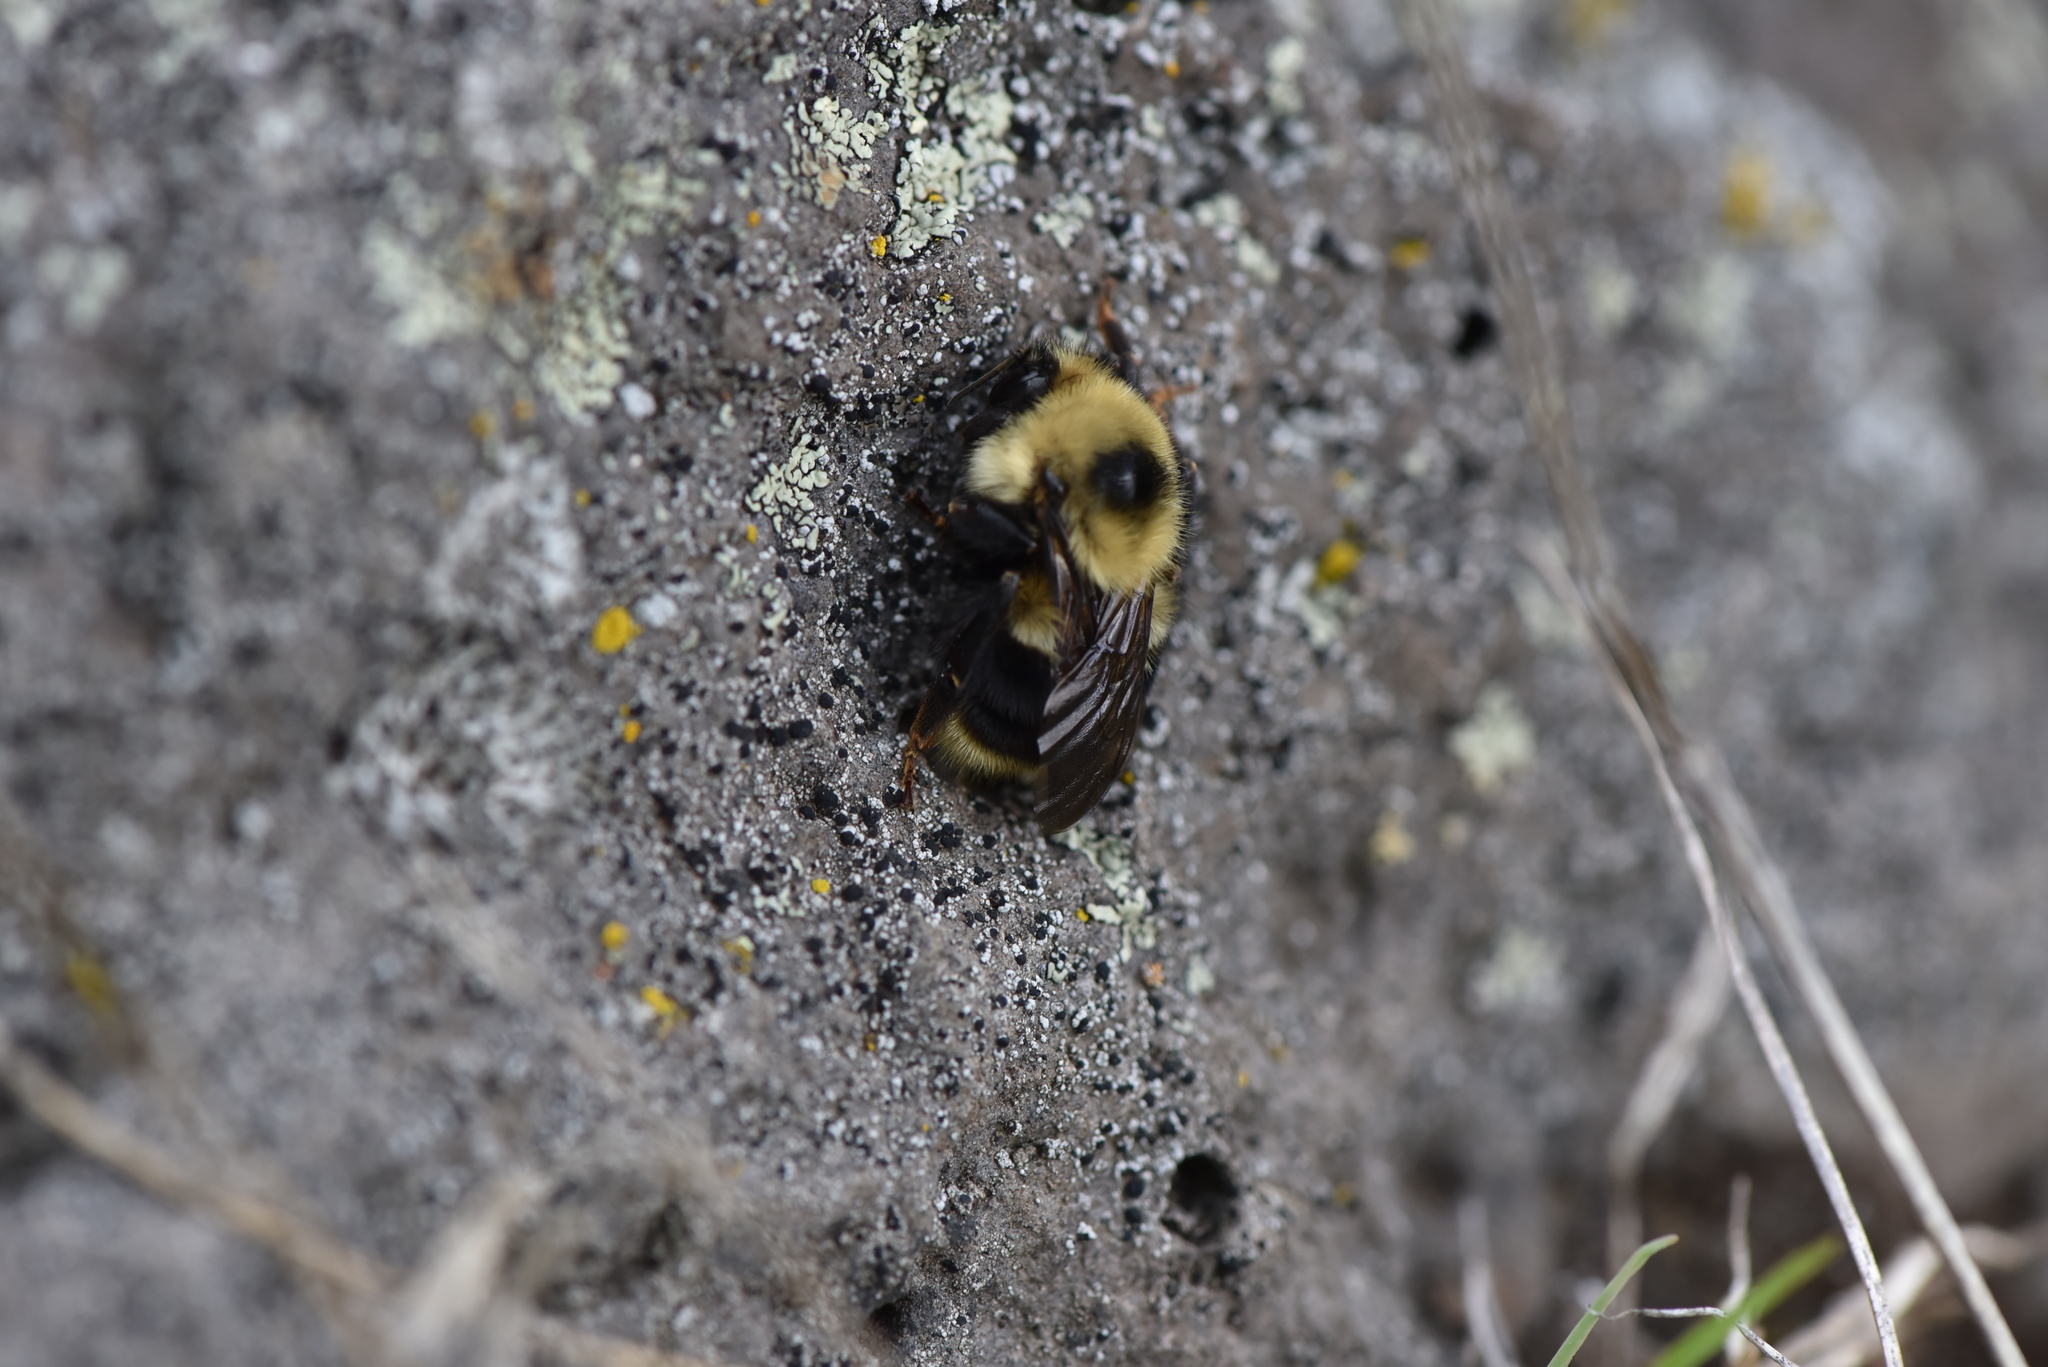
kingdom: Animalia
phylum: Arthropoda
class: Insecta
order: Hymenoptera
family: Apidae
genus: Bombus
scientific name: Bombus rufocinctus
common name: Red-belted bumble bee
